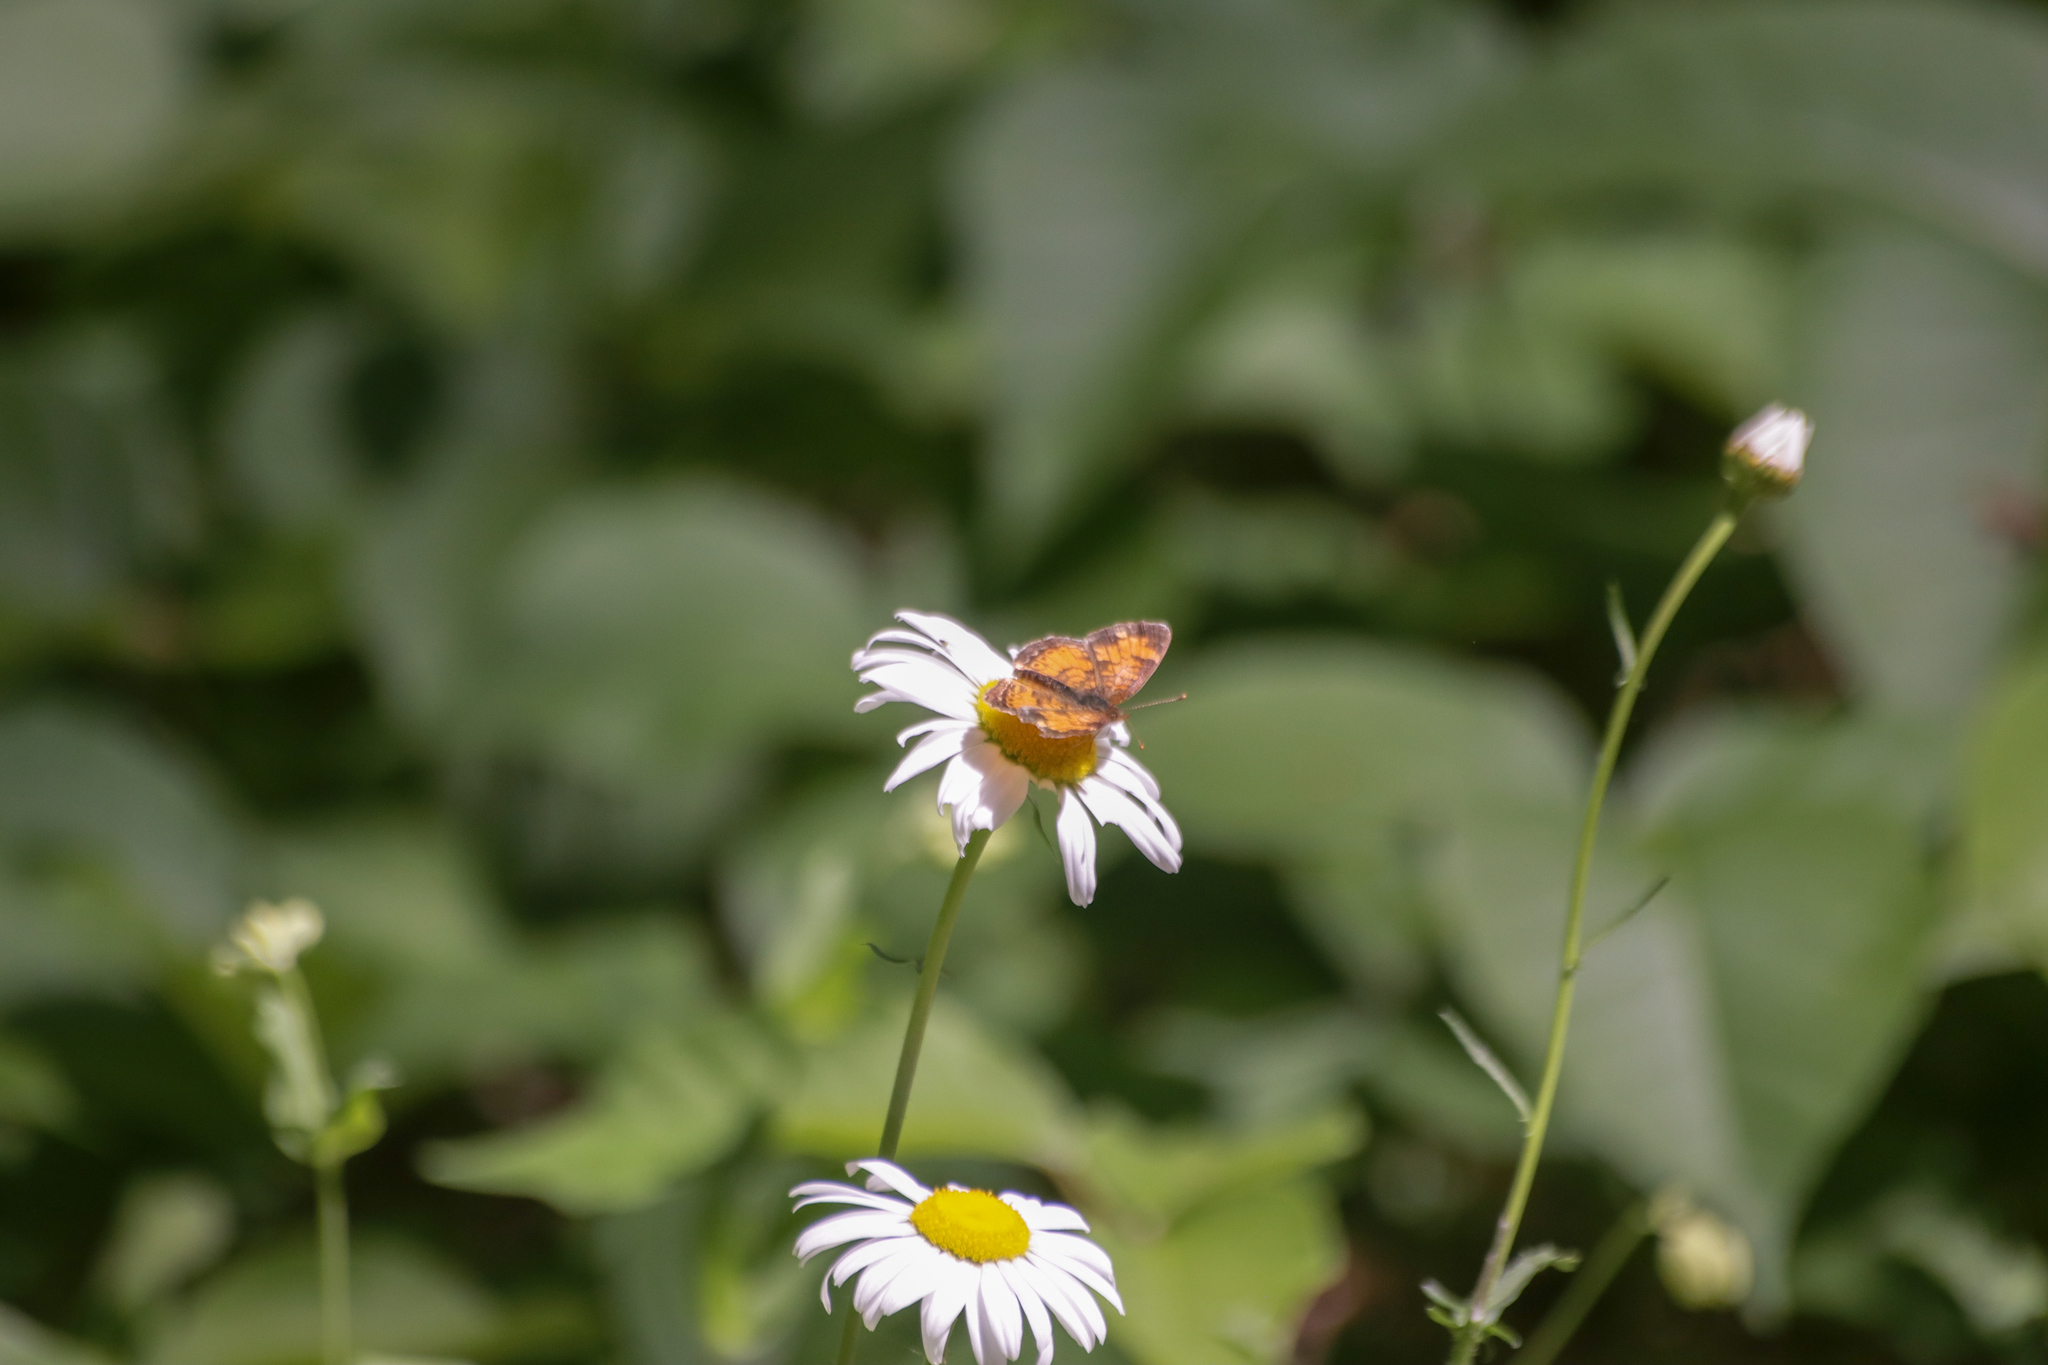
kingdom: Animalia
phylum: Arthropoda
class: Insecta
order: Lepidoptera
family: Nymphalidae
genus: Phyciodes
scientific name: Phyciodes tharos
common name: Pearl crescent
